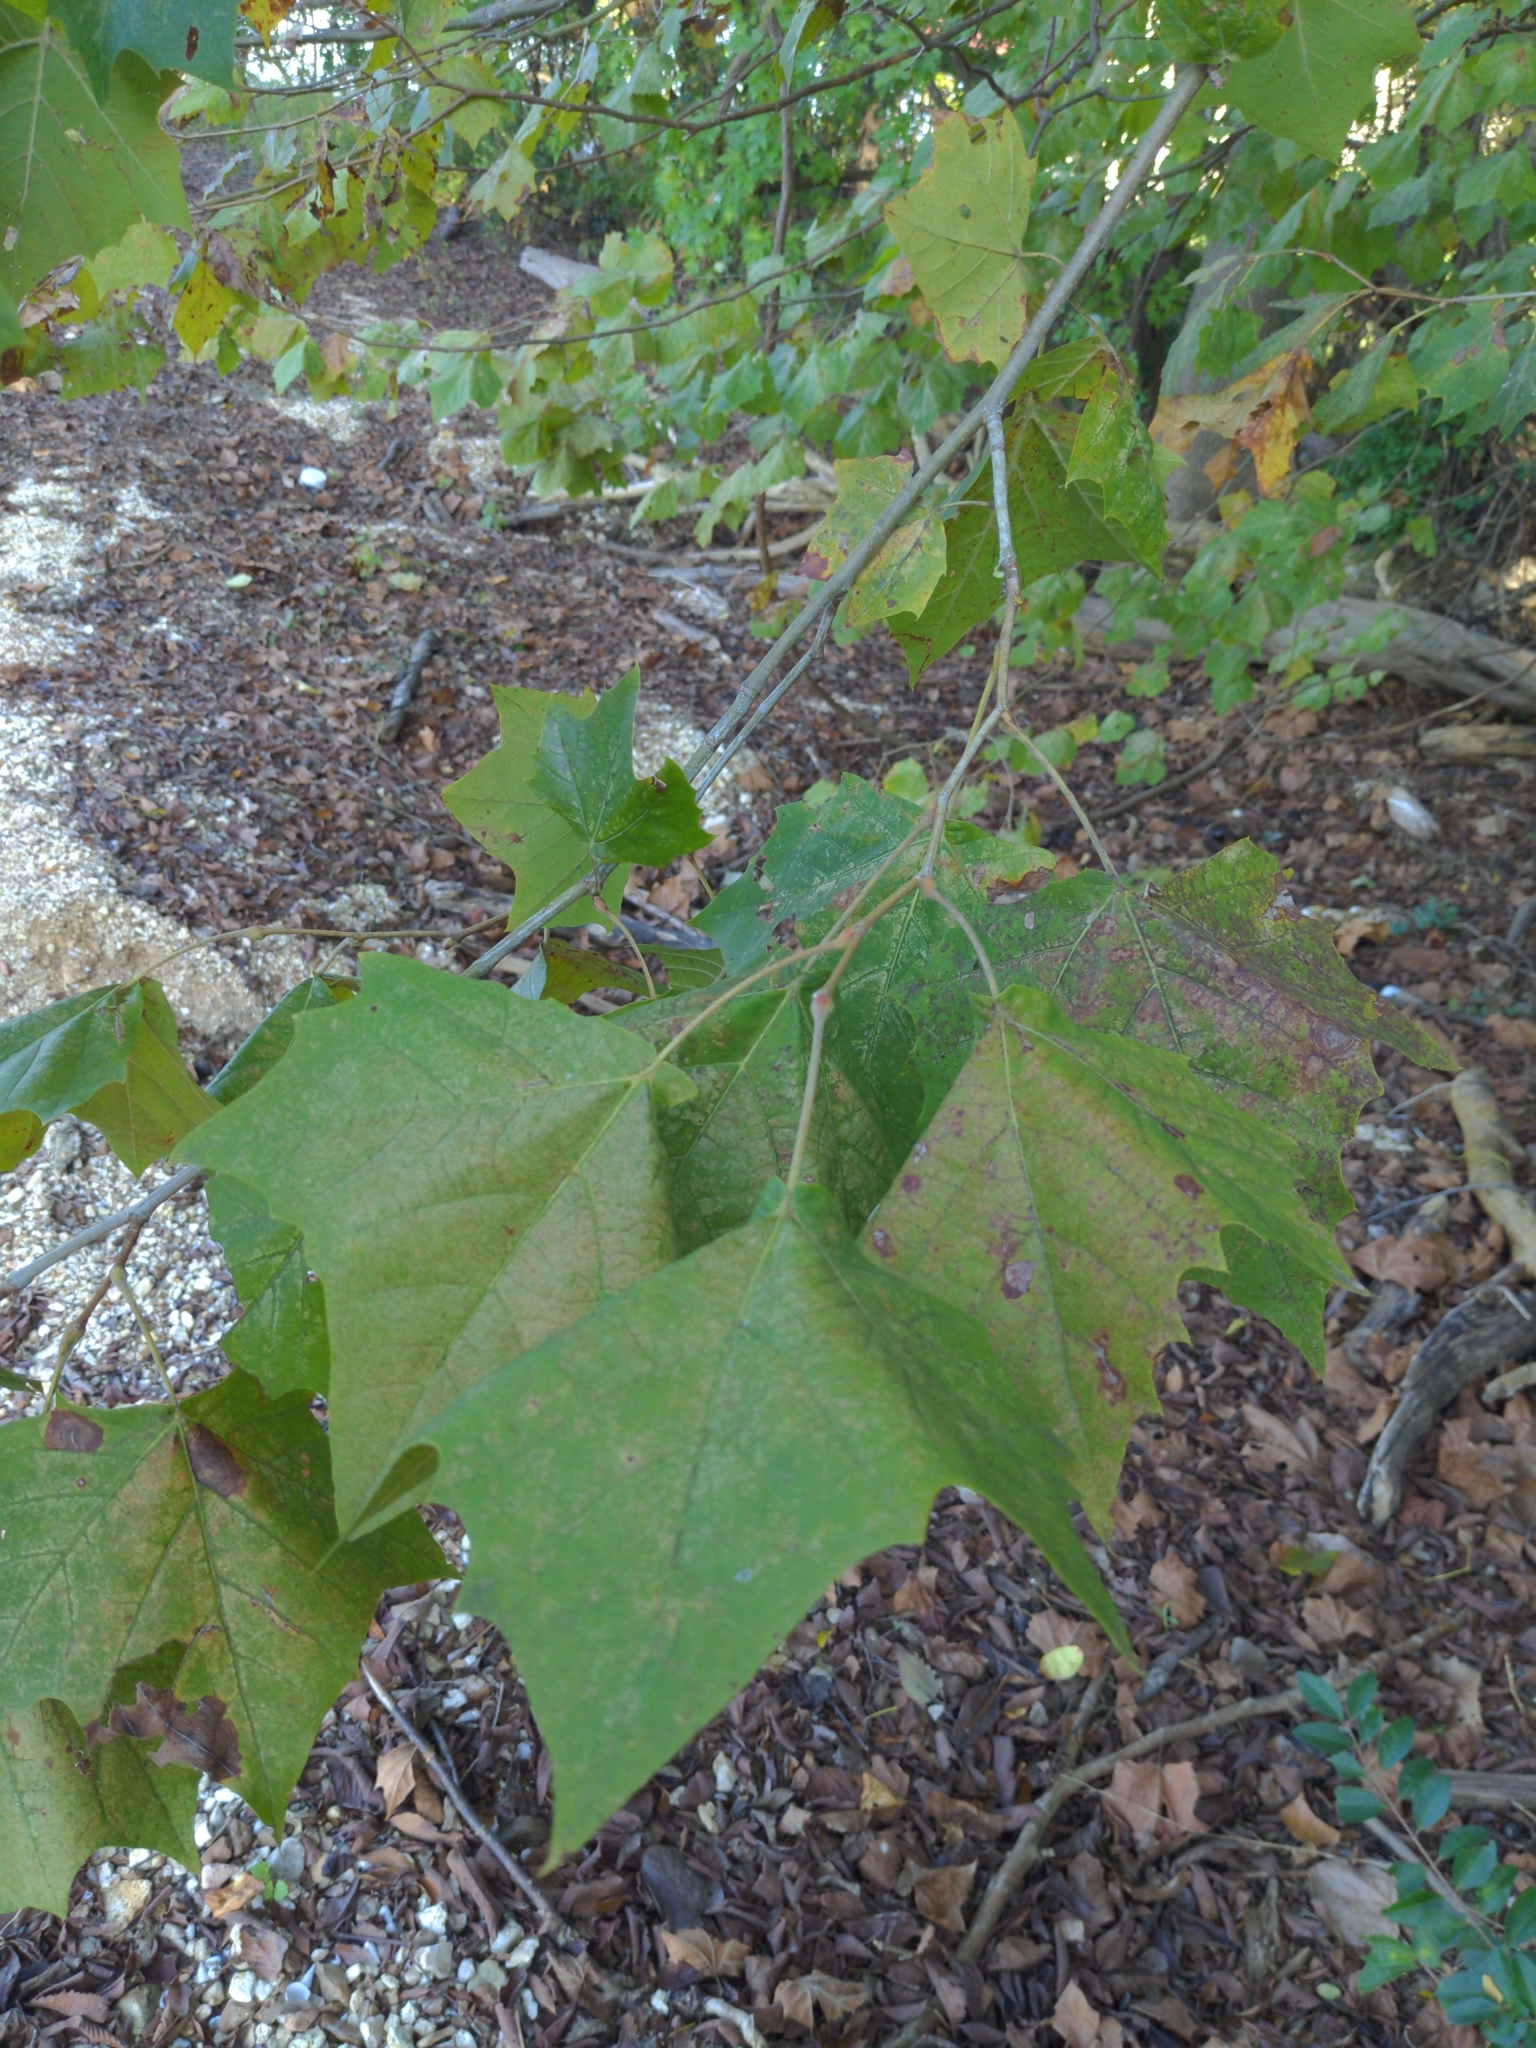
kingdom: Plantae
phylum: Tracheophyta
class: Magnoliopsida
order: Proteales
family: Platanaceae
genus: Platanus
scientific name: Platanus occidentalis
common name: American sycamore
